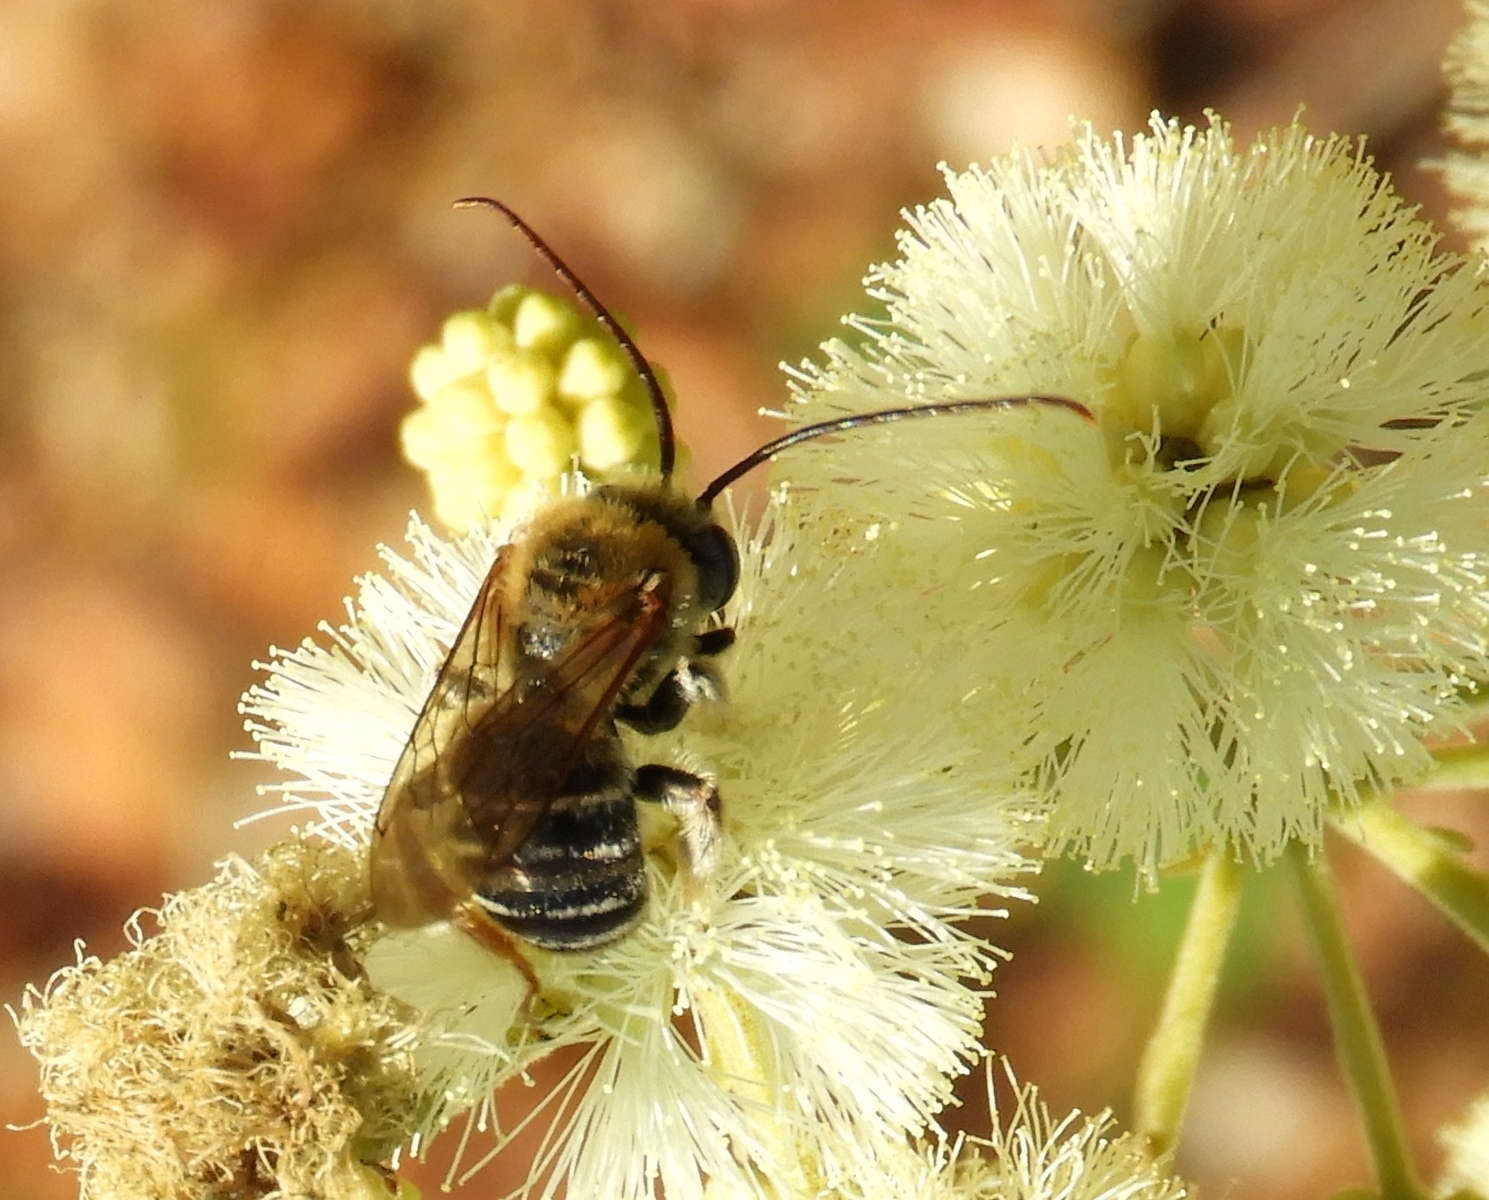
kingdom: Animalia
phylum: Arthropoda
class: Insecta
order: Hymenoptera
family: Apidae
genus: Melissodes
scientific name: Melissodes
